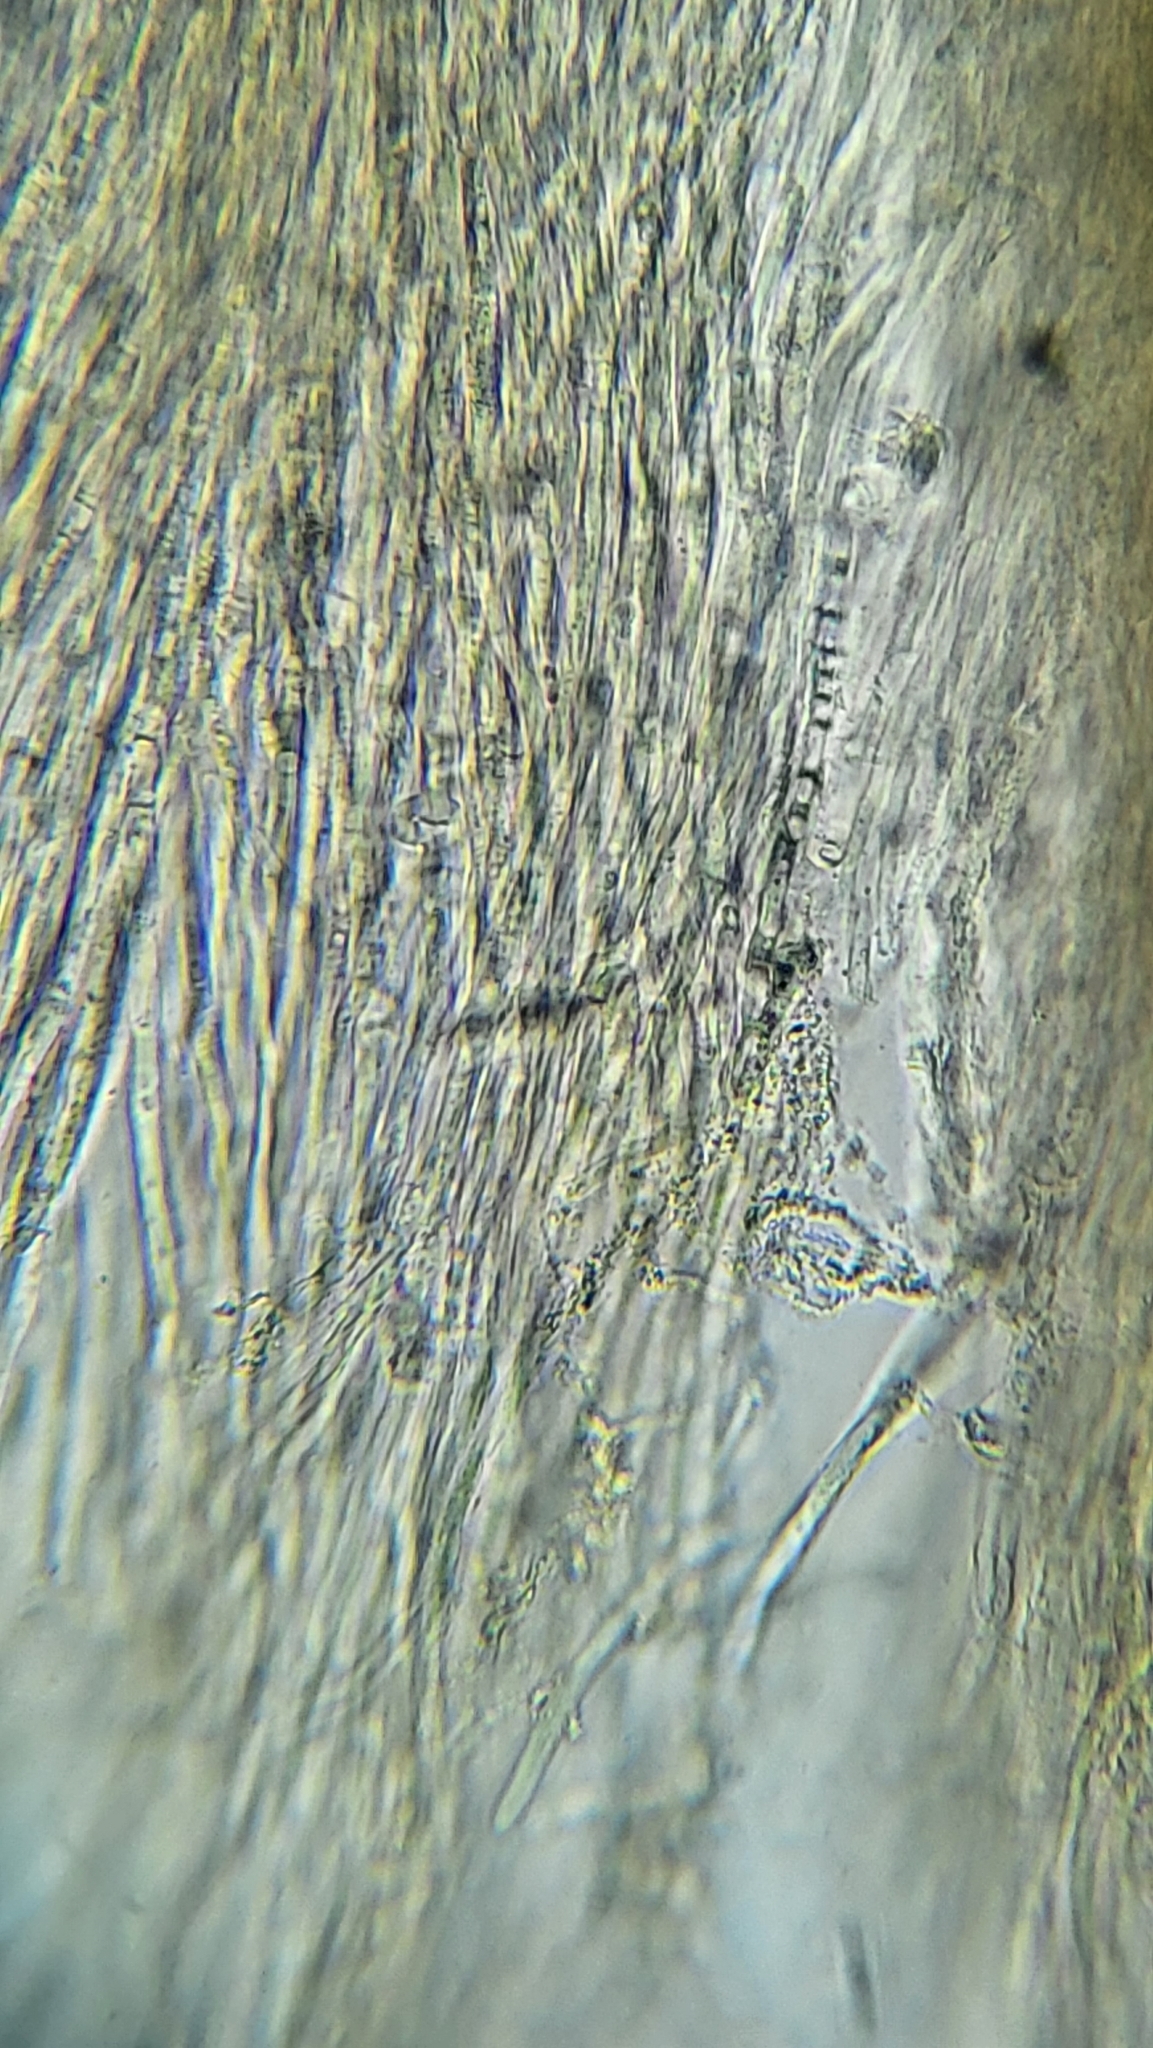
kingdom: Fungi
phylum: Basidiomycota
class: Agaricomycetes
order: Polyporales
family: Meruliaceae
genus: Phlebia
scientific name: Phlebia radiata
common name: Wrinkled crust
